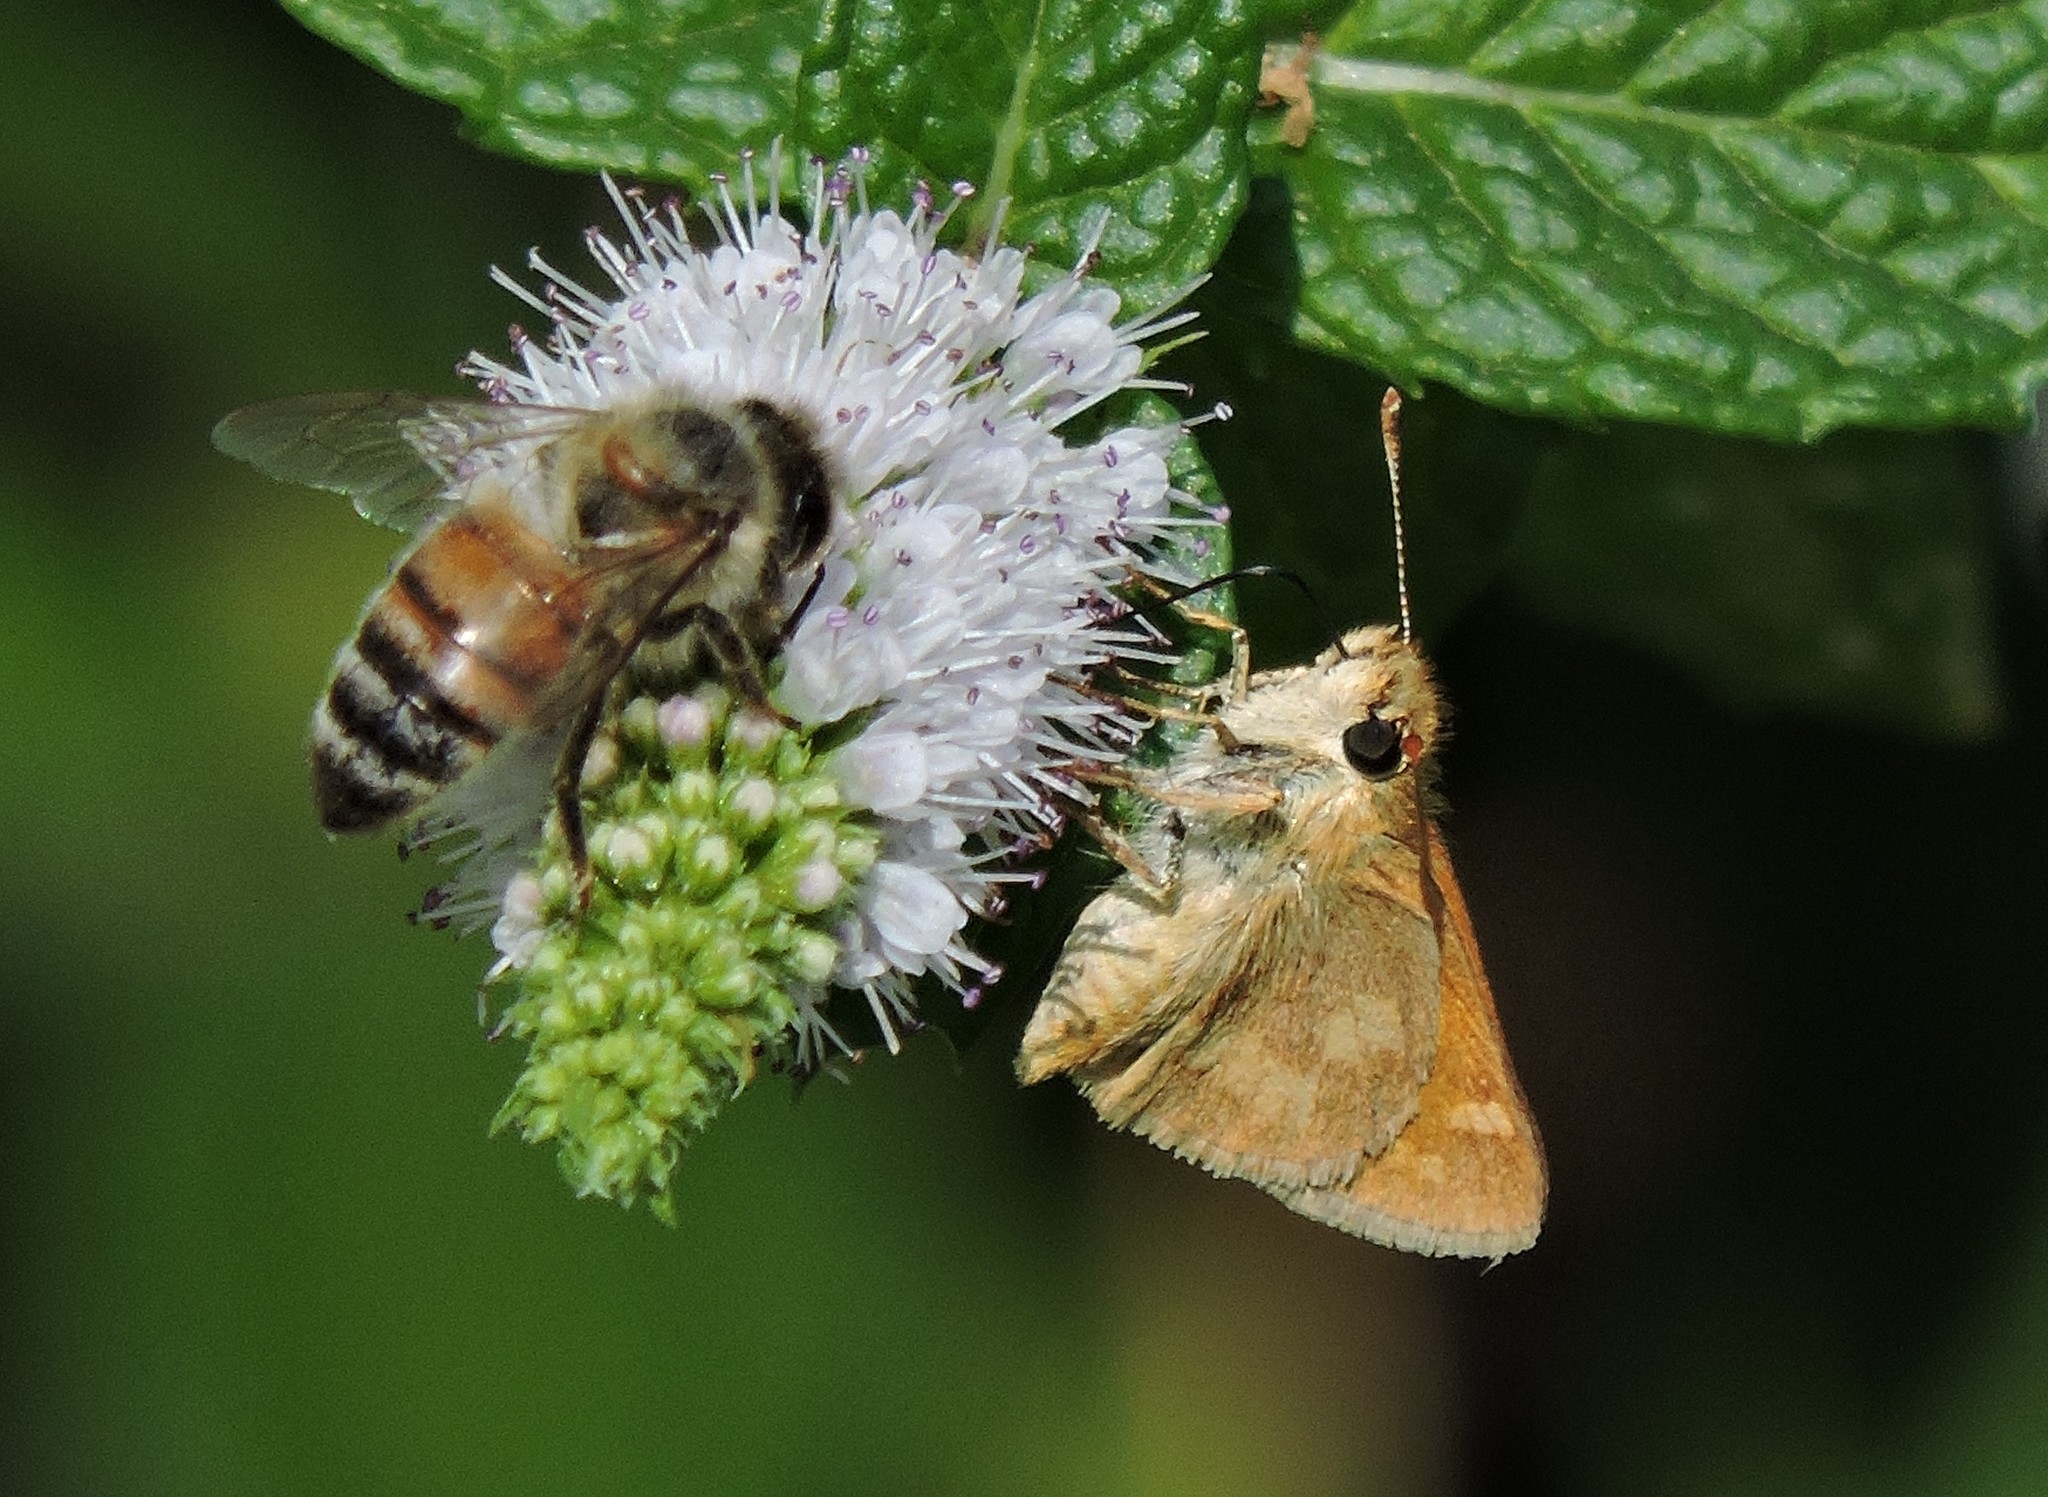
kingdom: Animalia
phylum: Arthropoda
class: Insecta
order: Lepidoptera
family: Hesperiidae
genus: Ochlodes
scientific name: Ochlodes sylvanoides
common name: Woodland skipper
